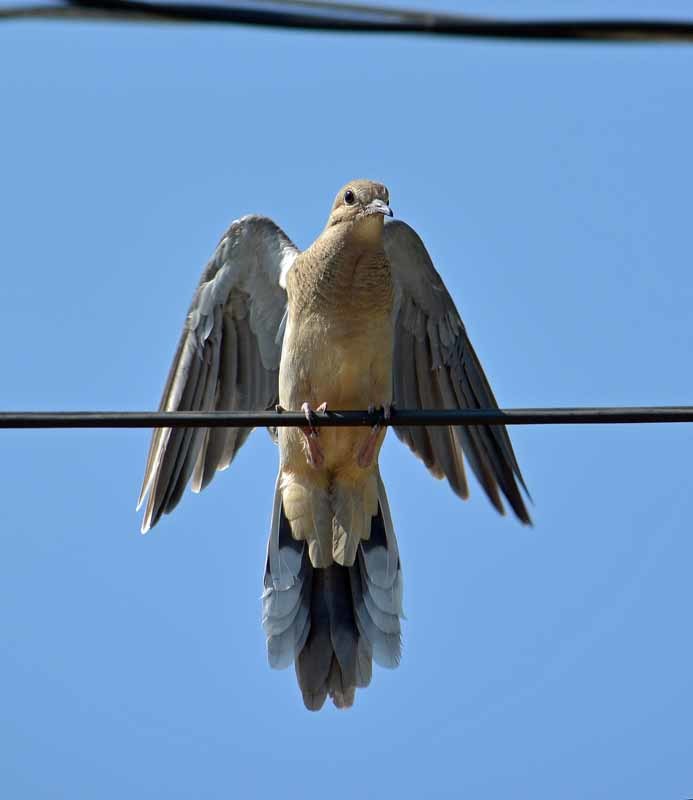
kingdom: Animalia
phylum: Chordata
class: Aves
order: Columbiformes
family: Columbidae
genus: Zenaida
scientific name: Zenaida macroura
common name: Mourning dove
